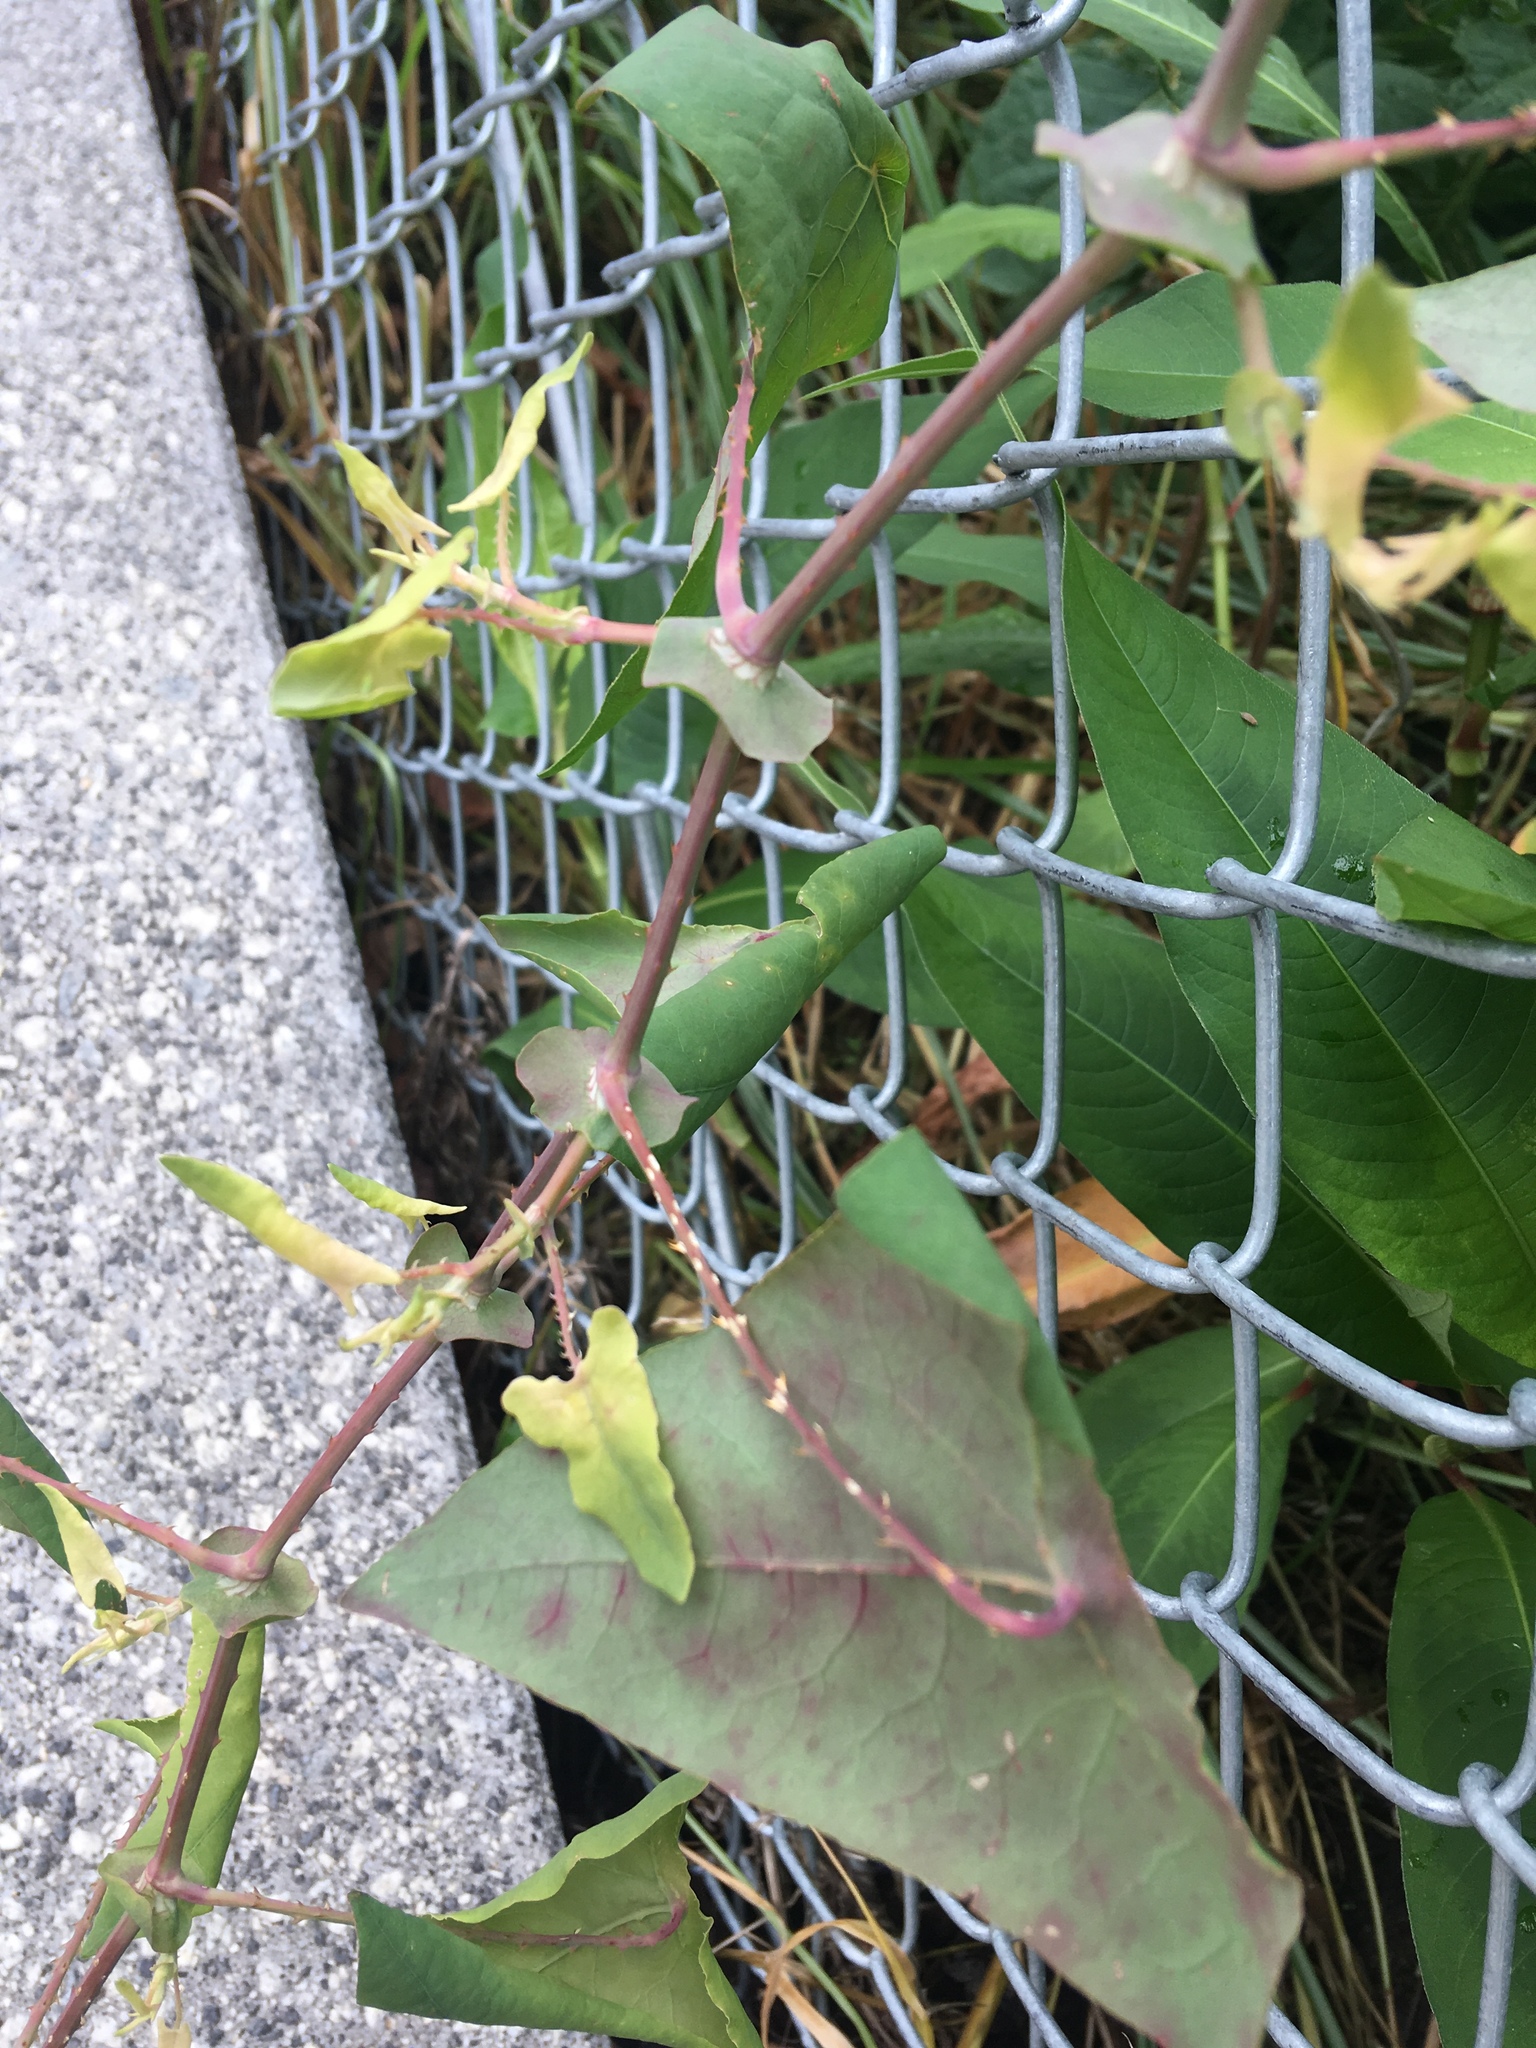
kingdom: Plantae
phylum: Tracheophyta
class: Magnoliopsida
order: Caryophyllales
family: Polygonaceae
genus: Persicaria
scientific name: Persicaria perfoliata
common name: Asiatic tearthumb
